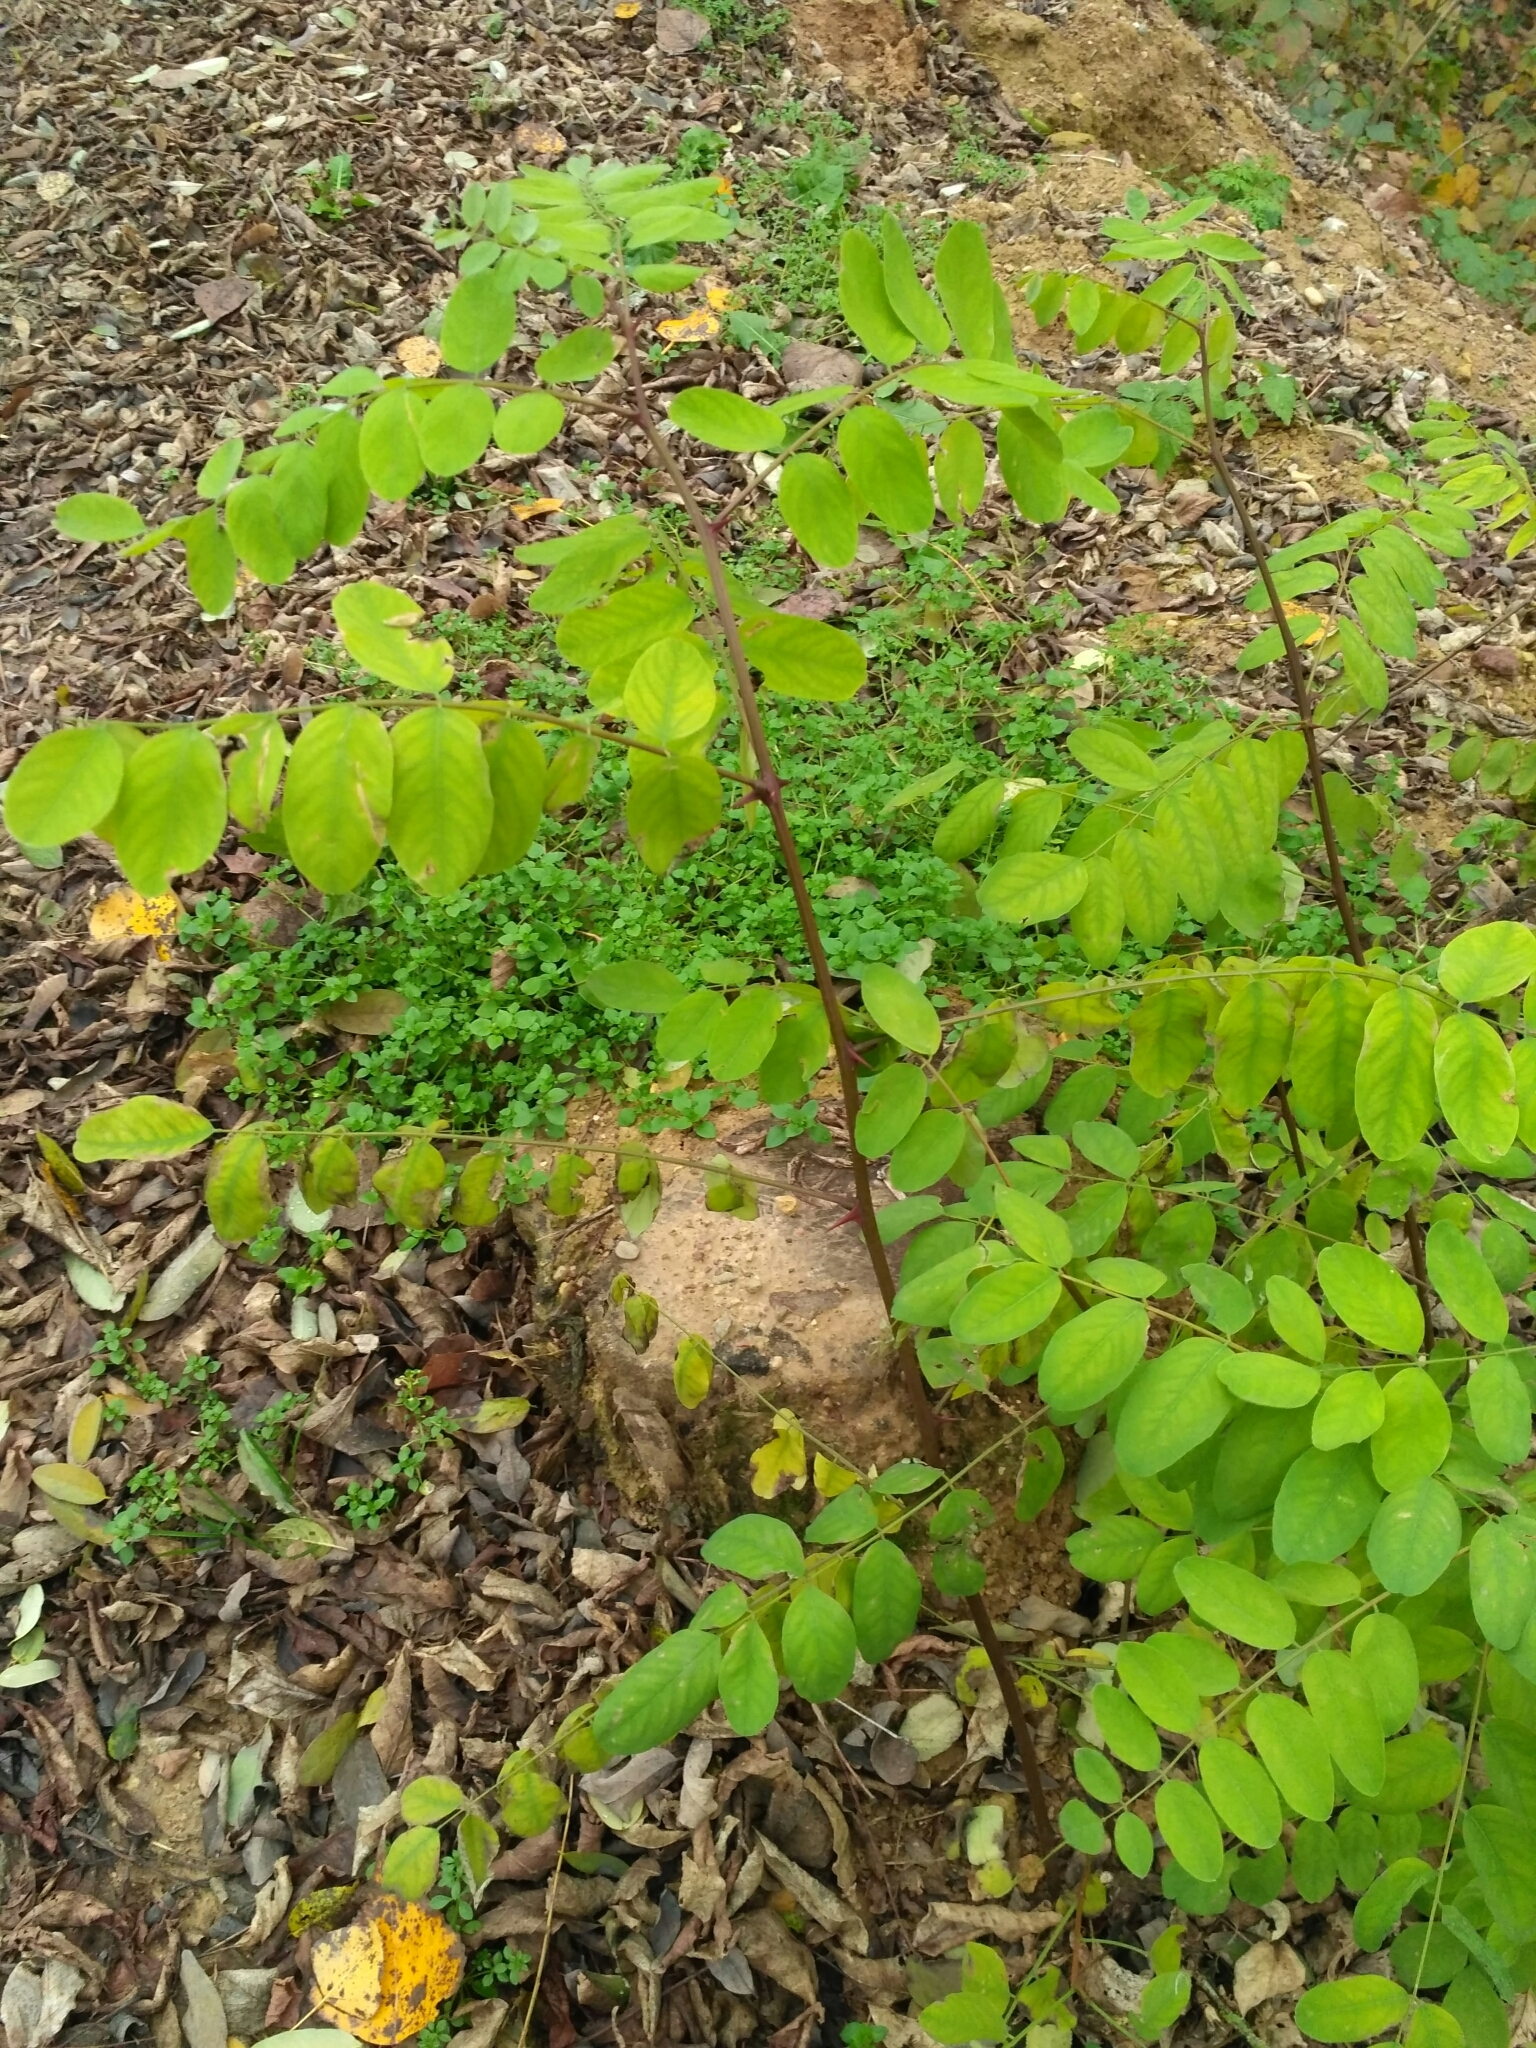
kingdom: Plantae
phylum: Tracheophyta
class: Magnoliopsida
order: Fabales
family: Fabaceae
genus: Robinia
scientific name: Robinia pseudoacacia
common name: Black locust
